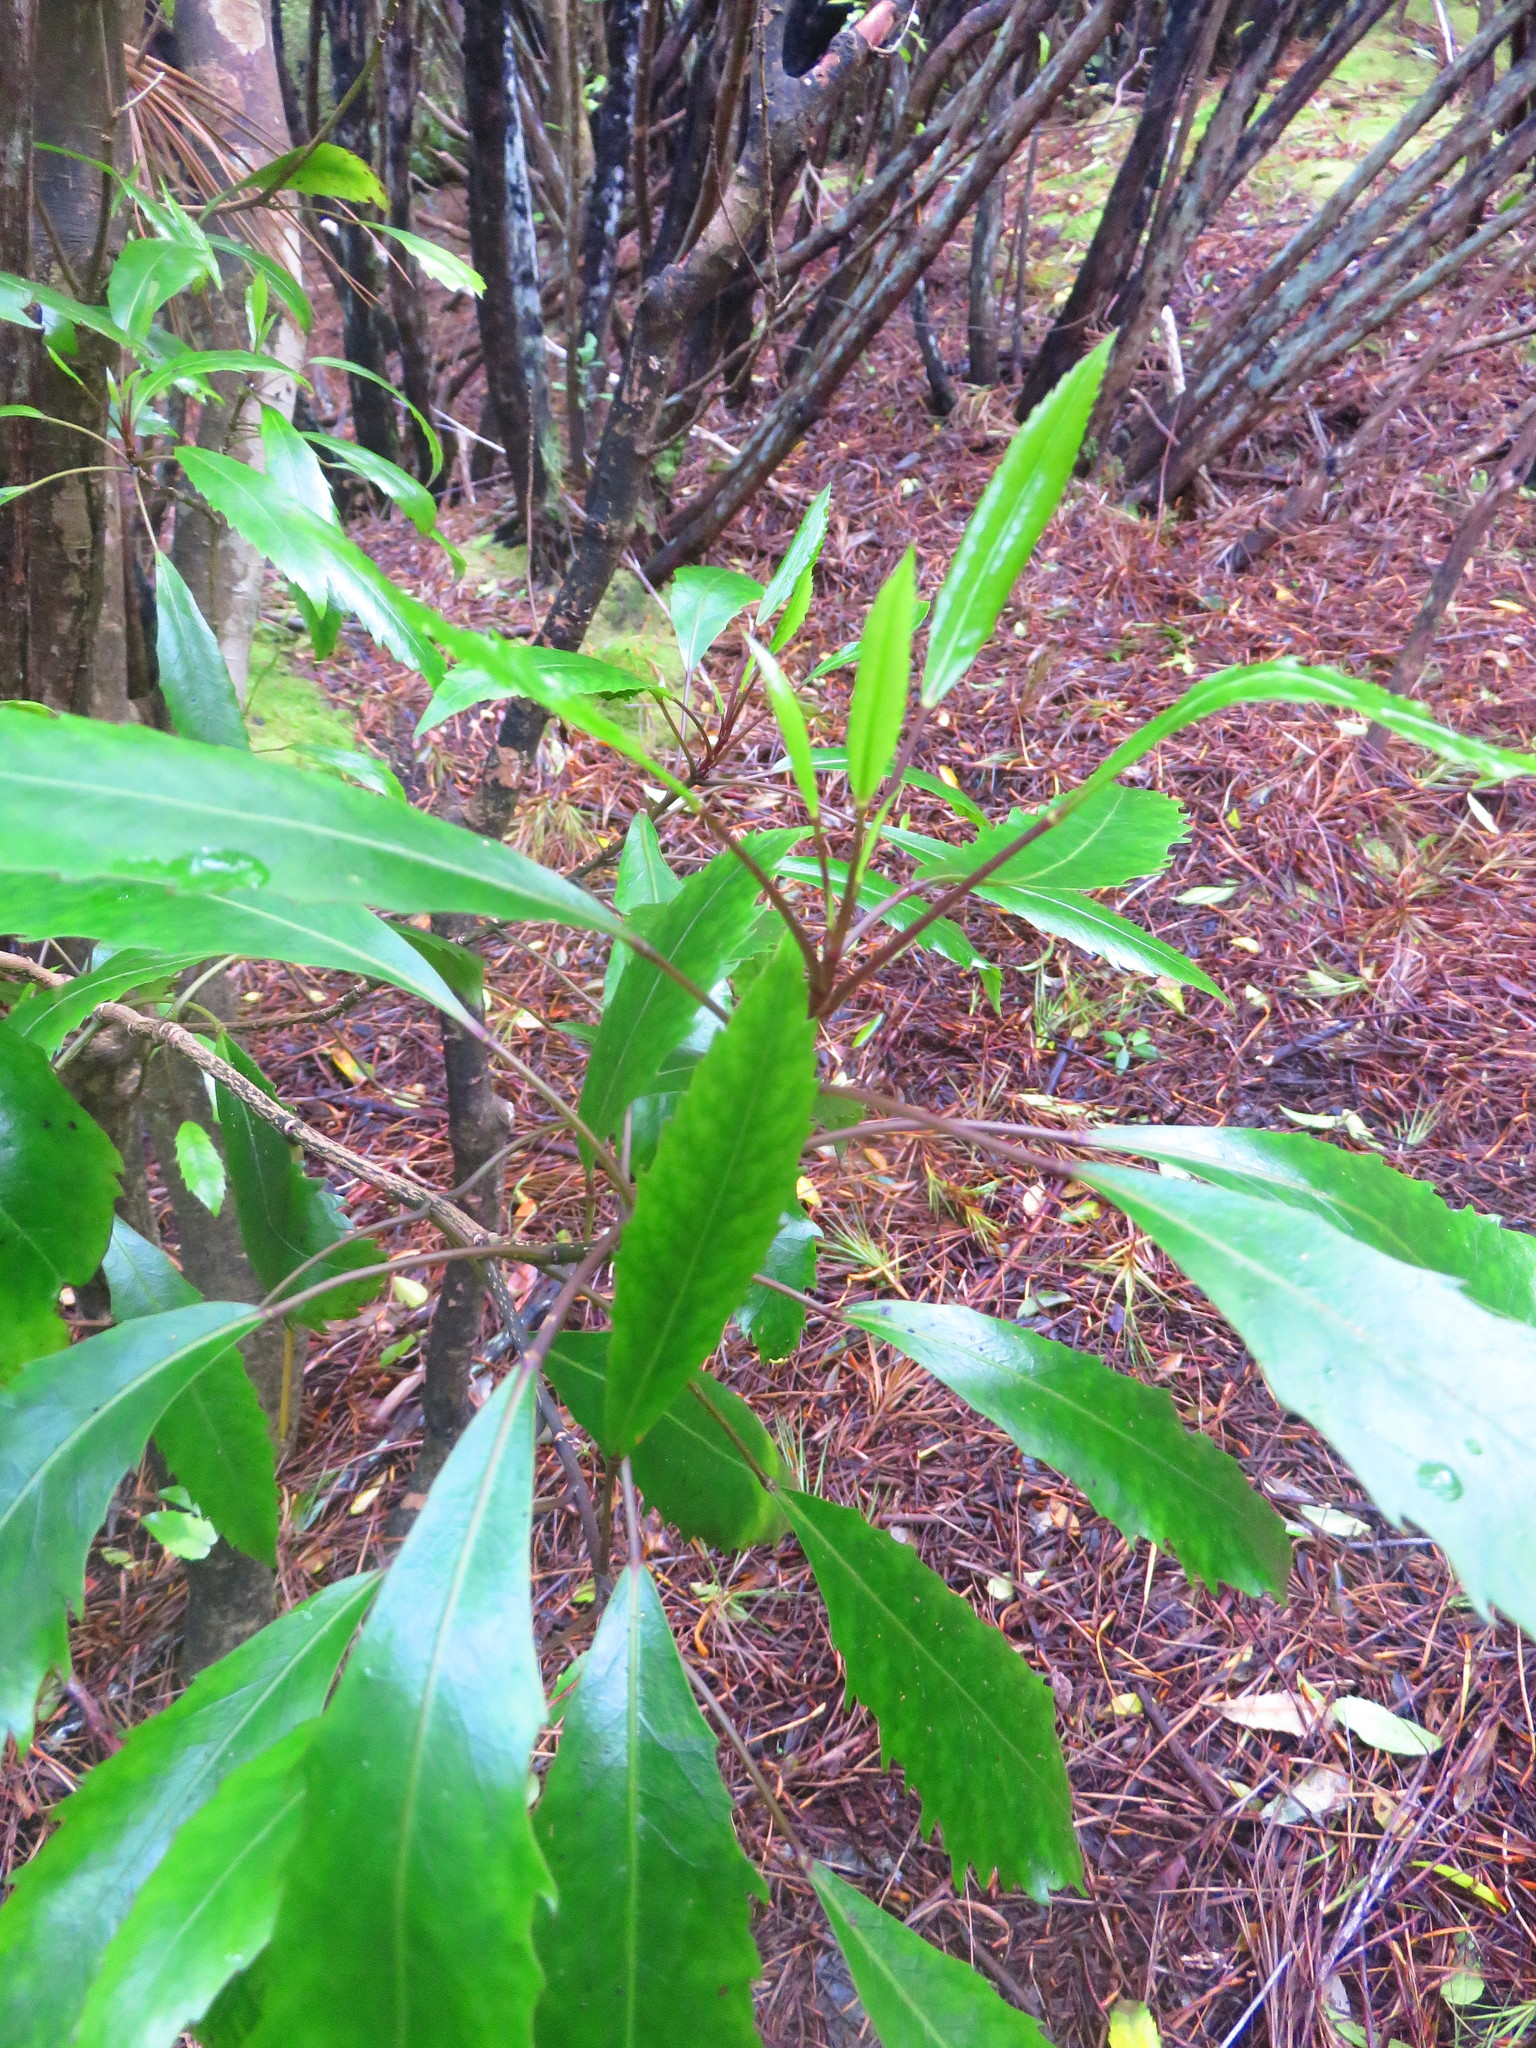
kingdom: Plantae
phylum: Tracheophyta
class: Magnoliopsida
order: Apiales
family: Araliaceae
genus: Raukaua
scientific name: Raukaua simplex
